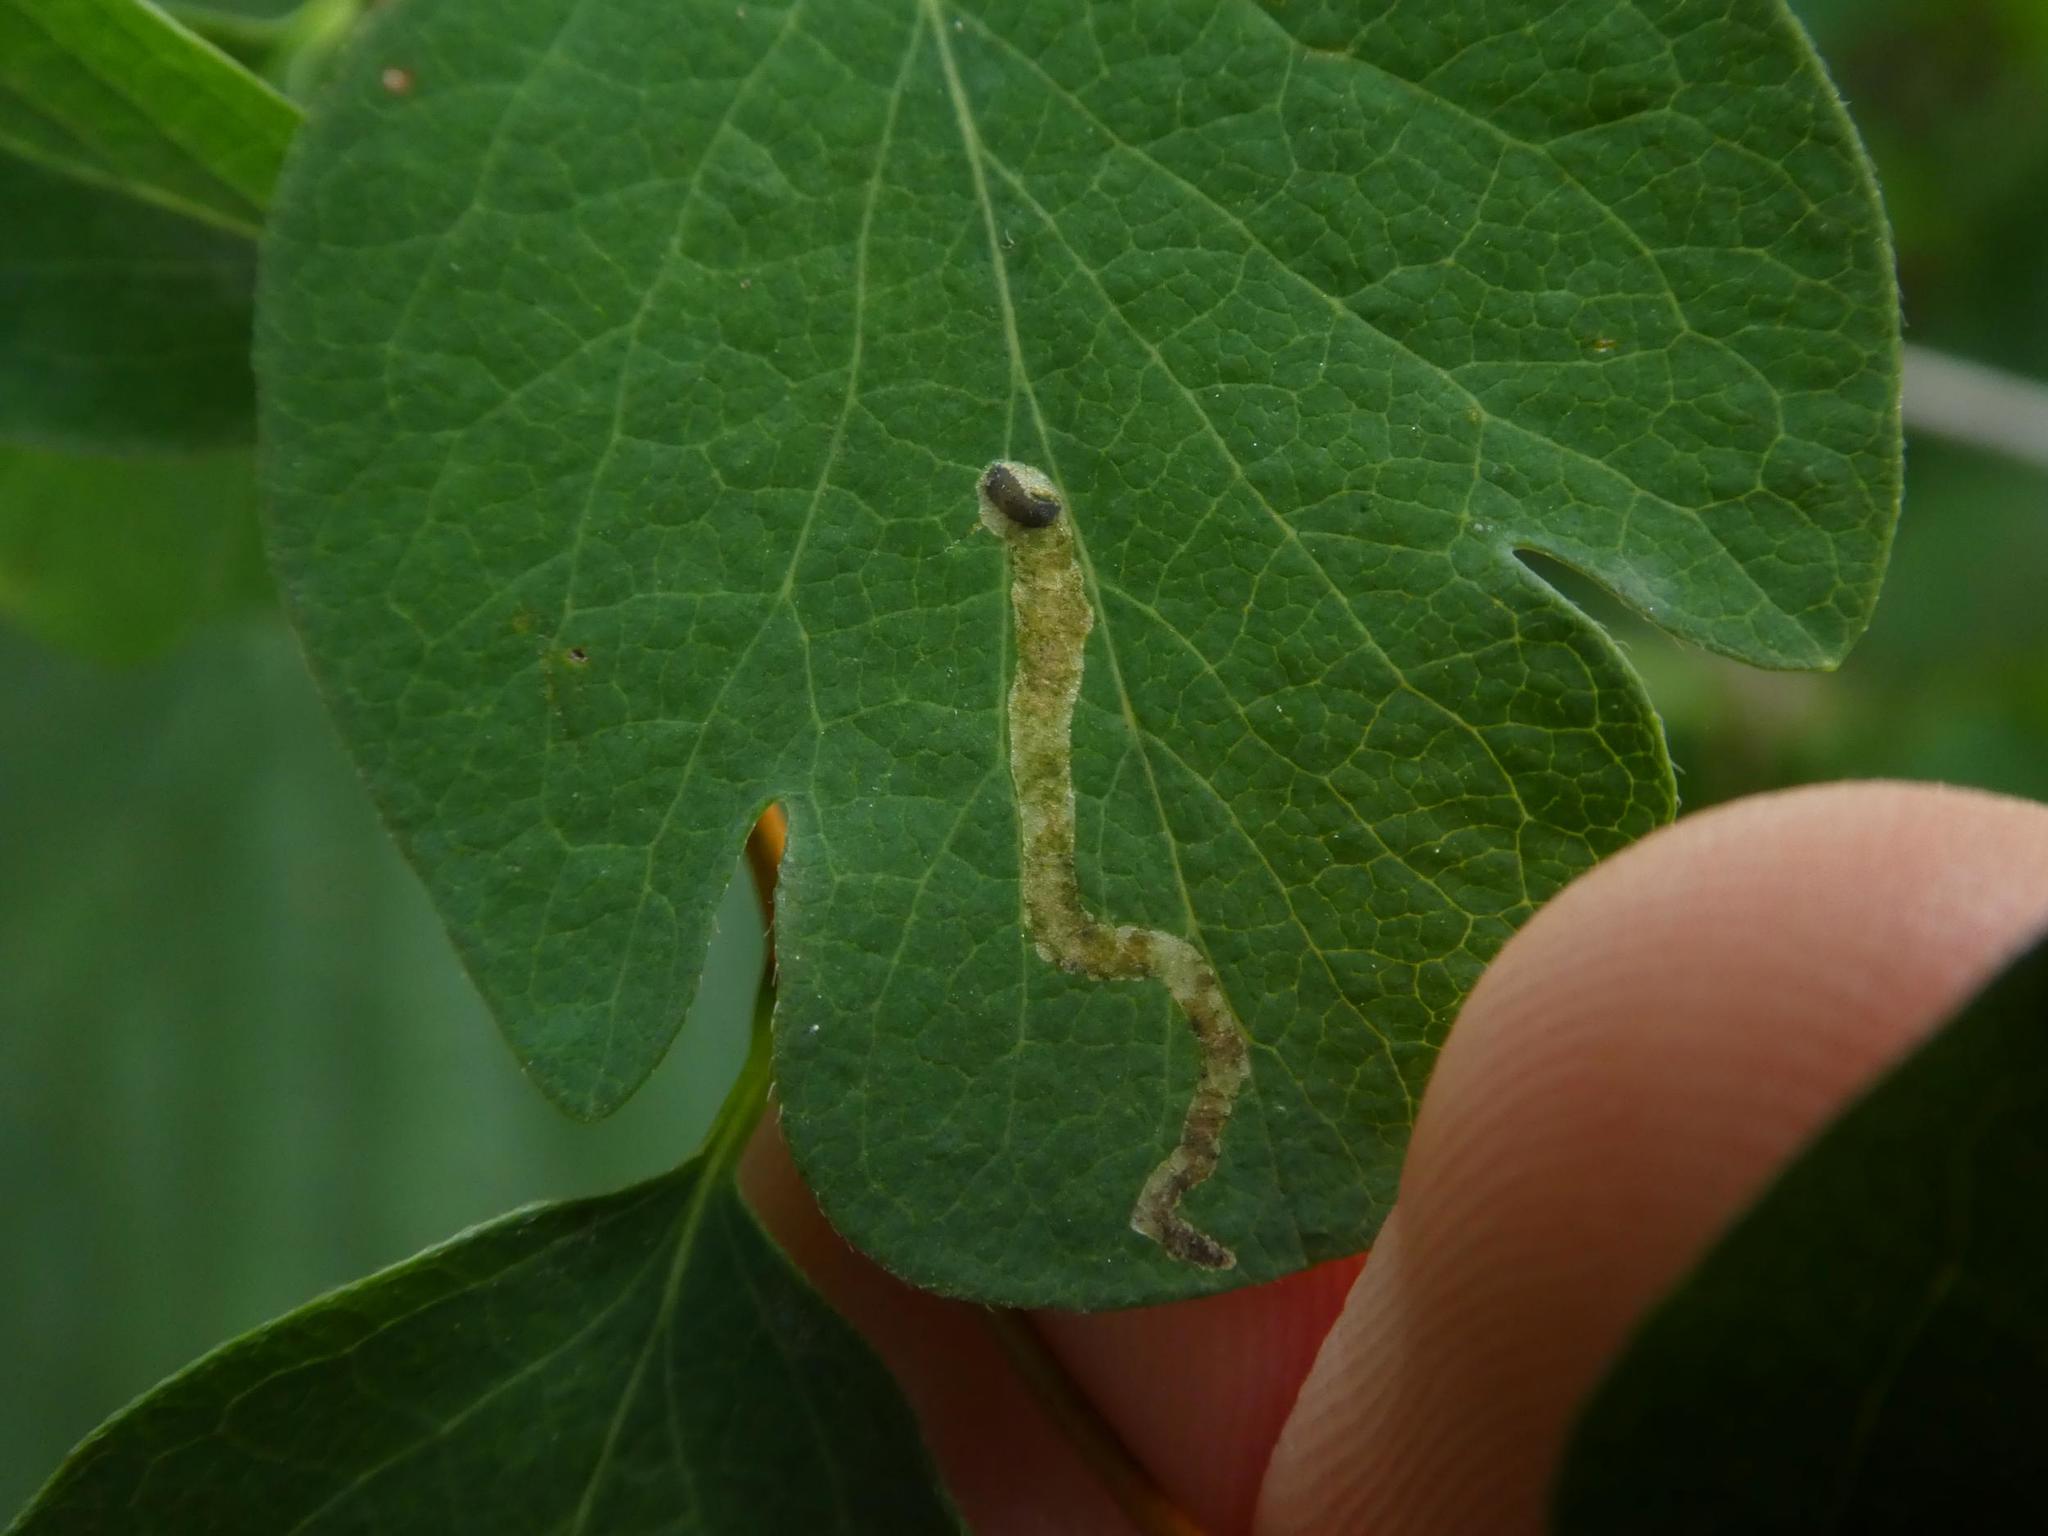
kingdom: Animalia
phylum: Arthropoda
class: Insecta
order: Diptera
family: Agromyzidae
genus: Aulagromyza
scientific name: Aulagromyza luteoscutellata
